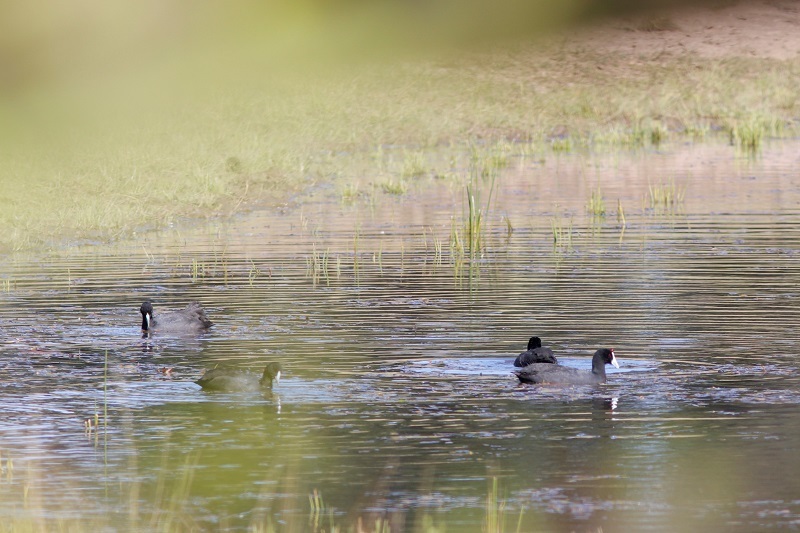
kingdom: Animalia
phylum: Chordata
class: Aves
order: Gruiformes
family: Rallidae
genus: Fulica
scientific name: Fulica cristata
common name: Red-knobbed coot
